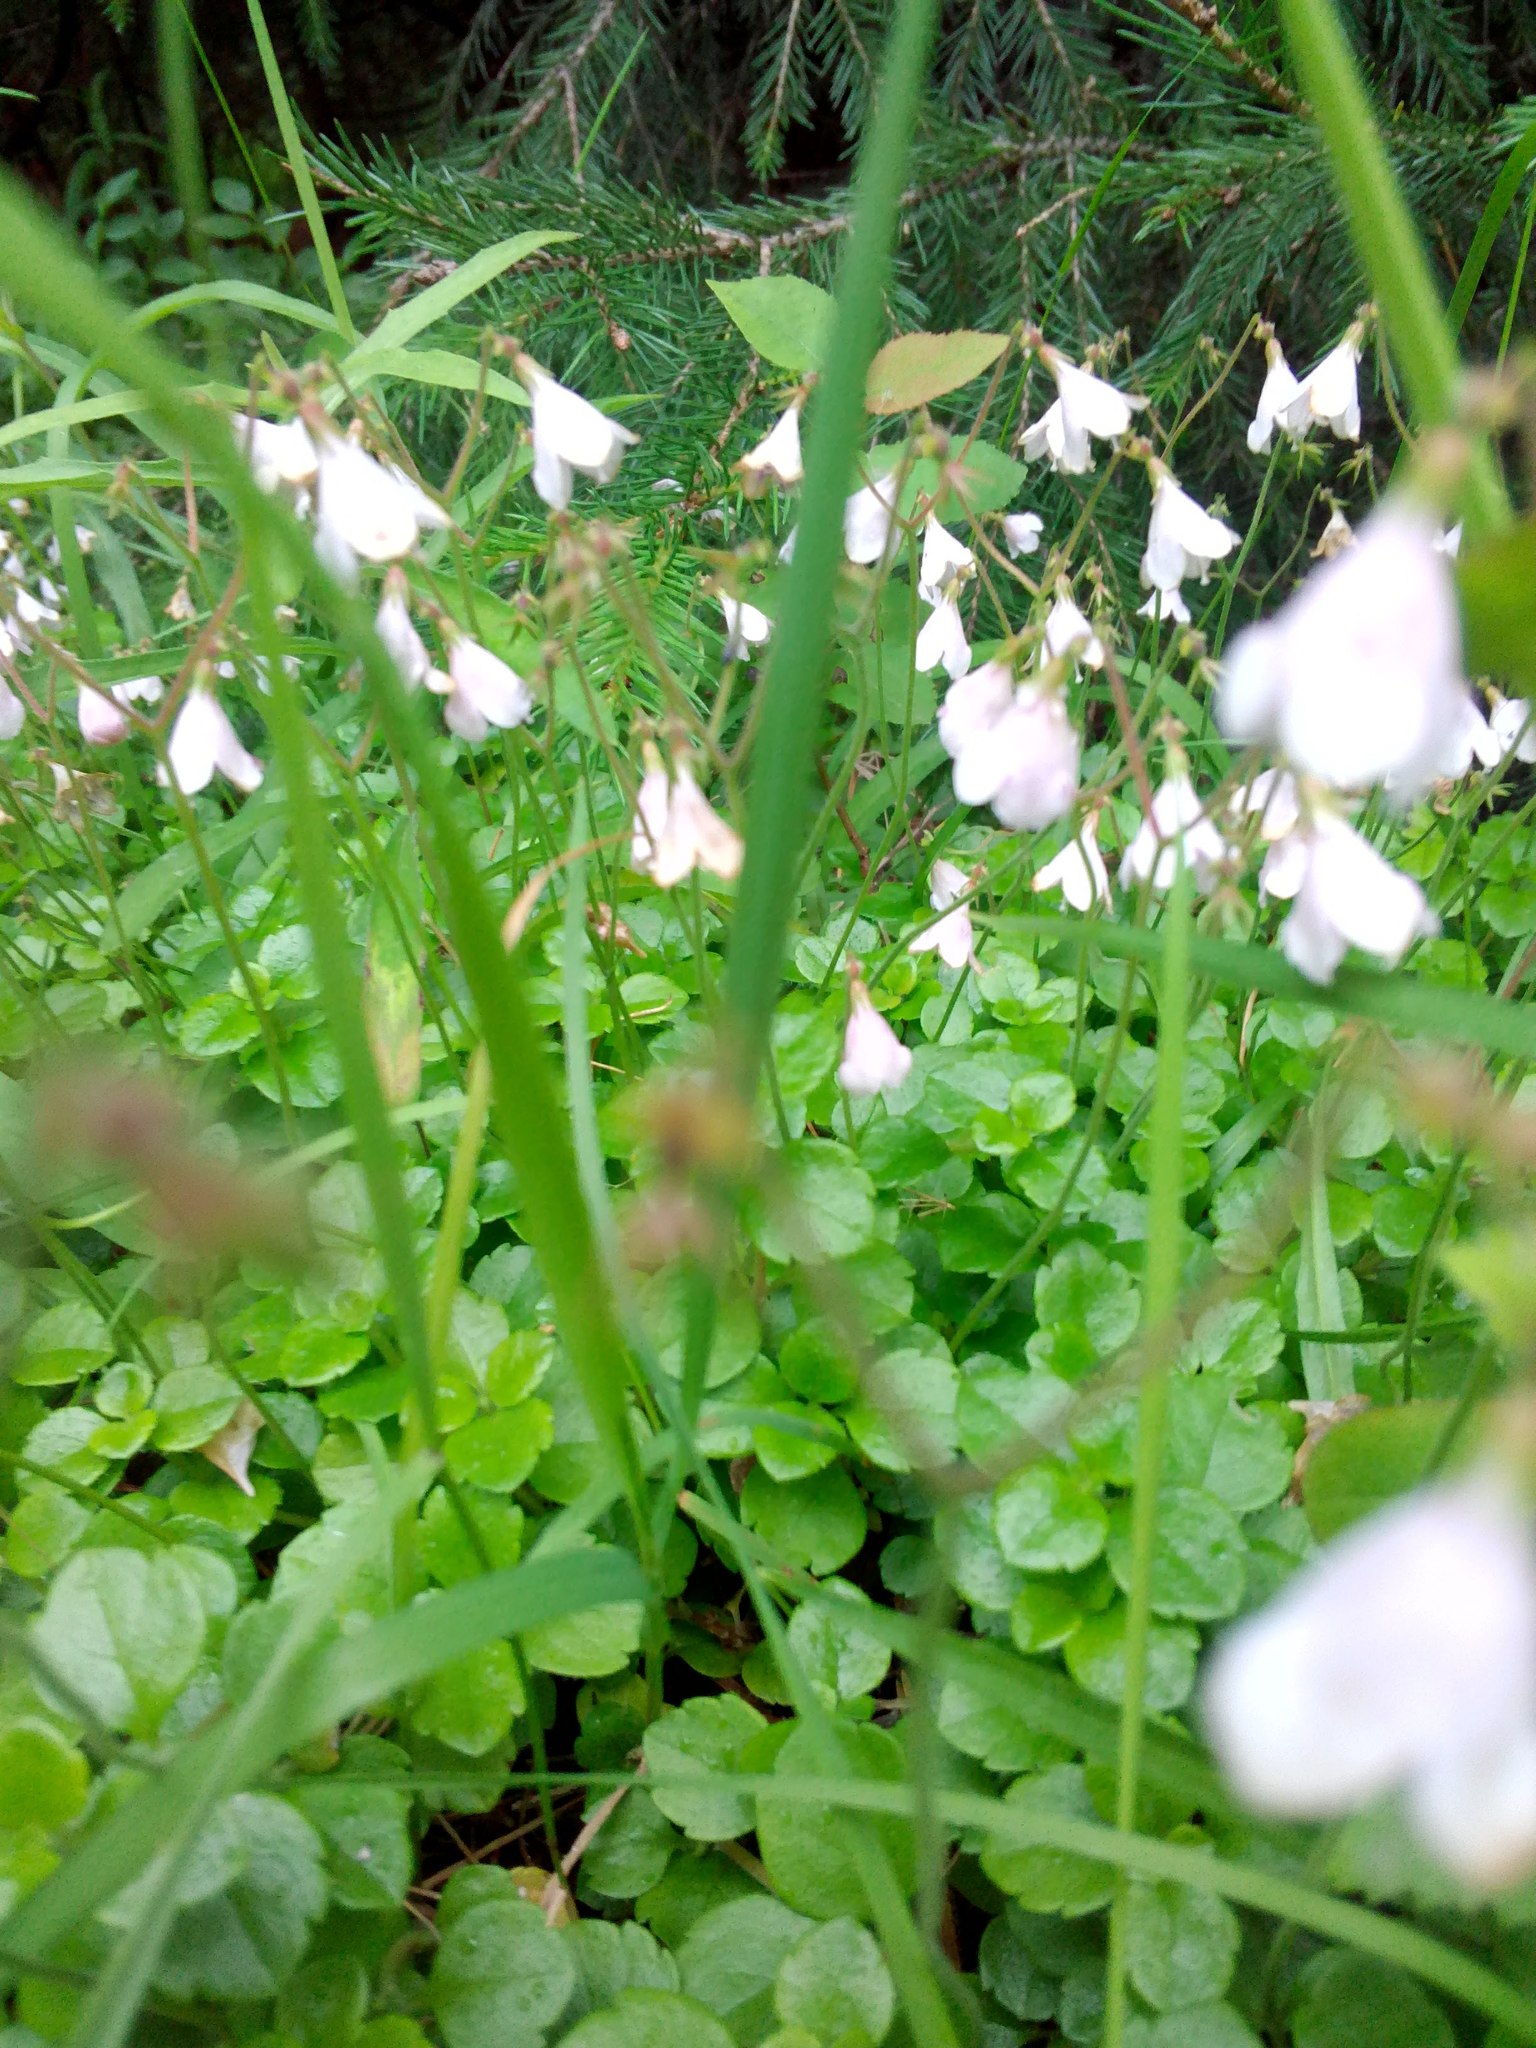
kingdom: Plantae
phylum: Tracheophyta
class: Magnoliopsida
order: Dipsacales
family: Caprifoliaceae
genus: Linnaea
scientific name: Linnaea borealis
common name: Twinflower
